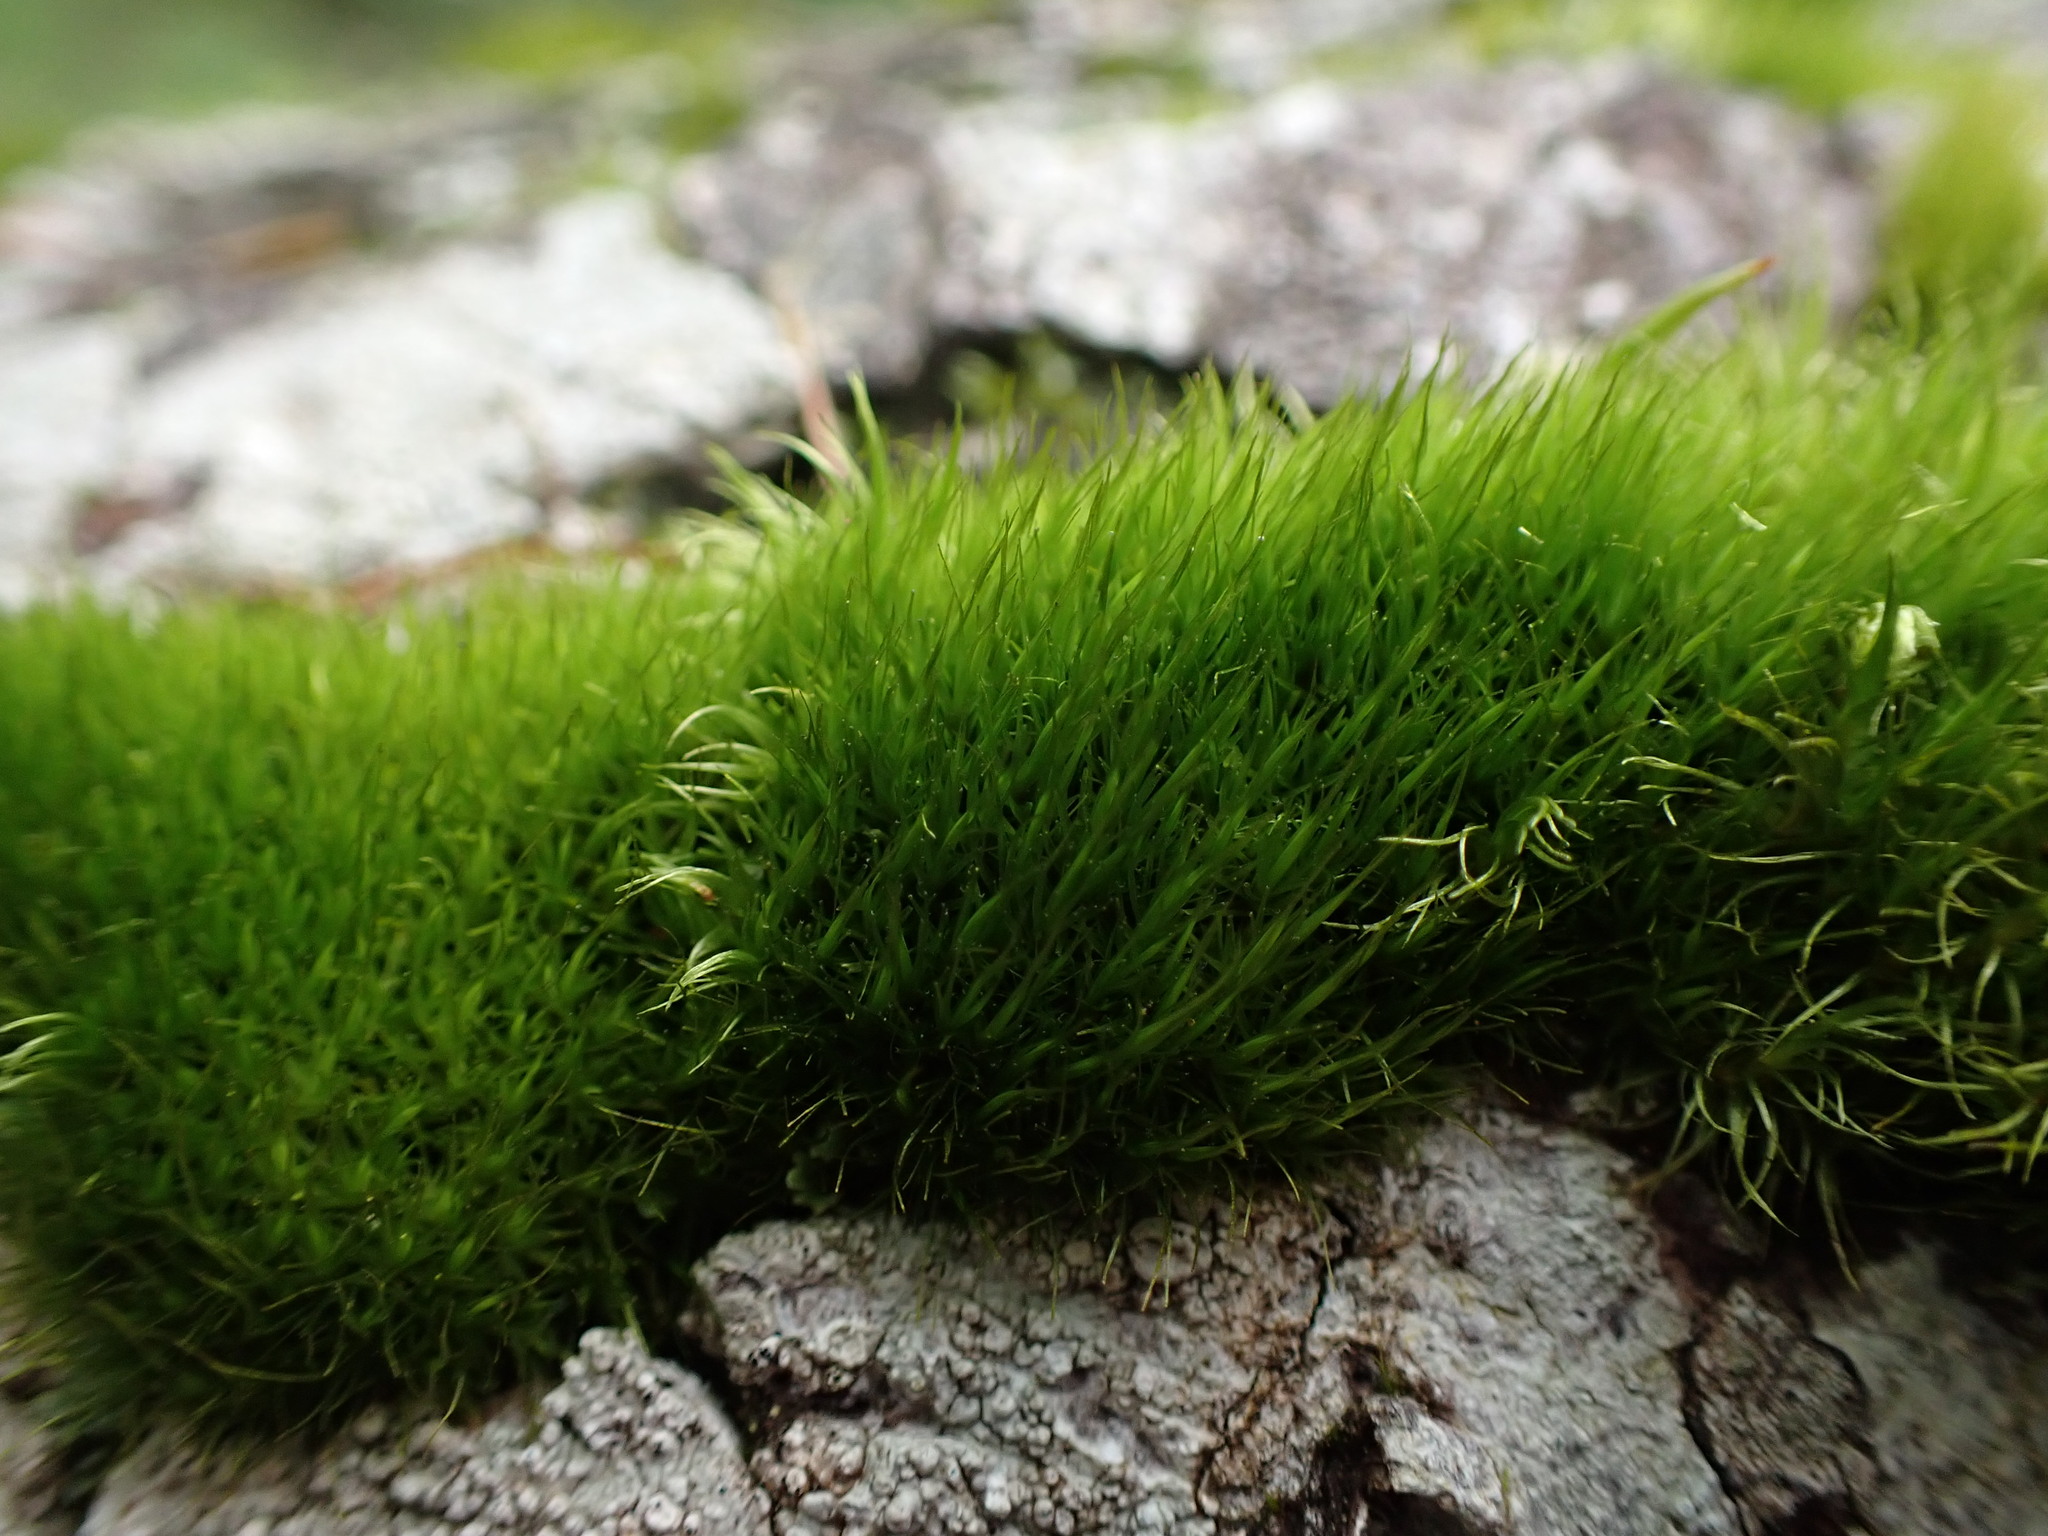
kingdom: Plantae
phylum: Bryophyta
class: Bryopsida
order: Dicranales
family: Dicranaceae
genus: Orthodicranum
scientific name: Orthodicranum tauricum
